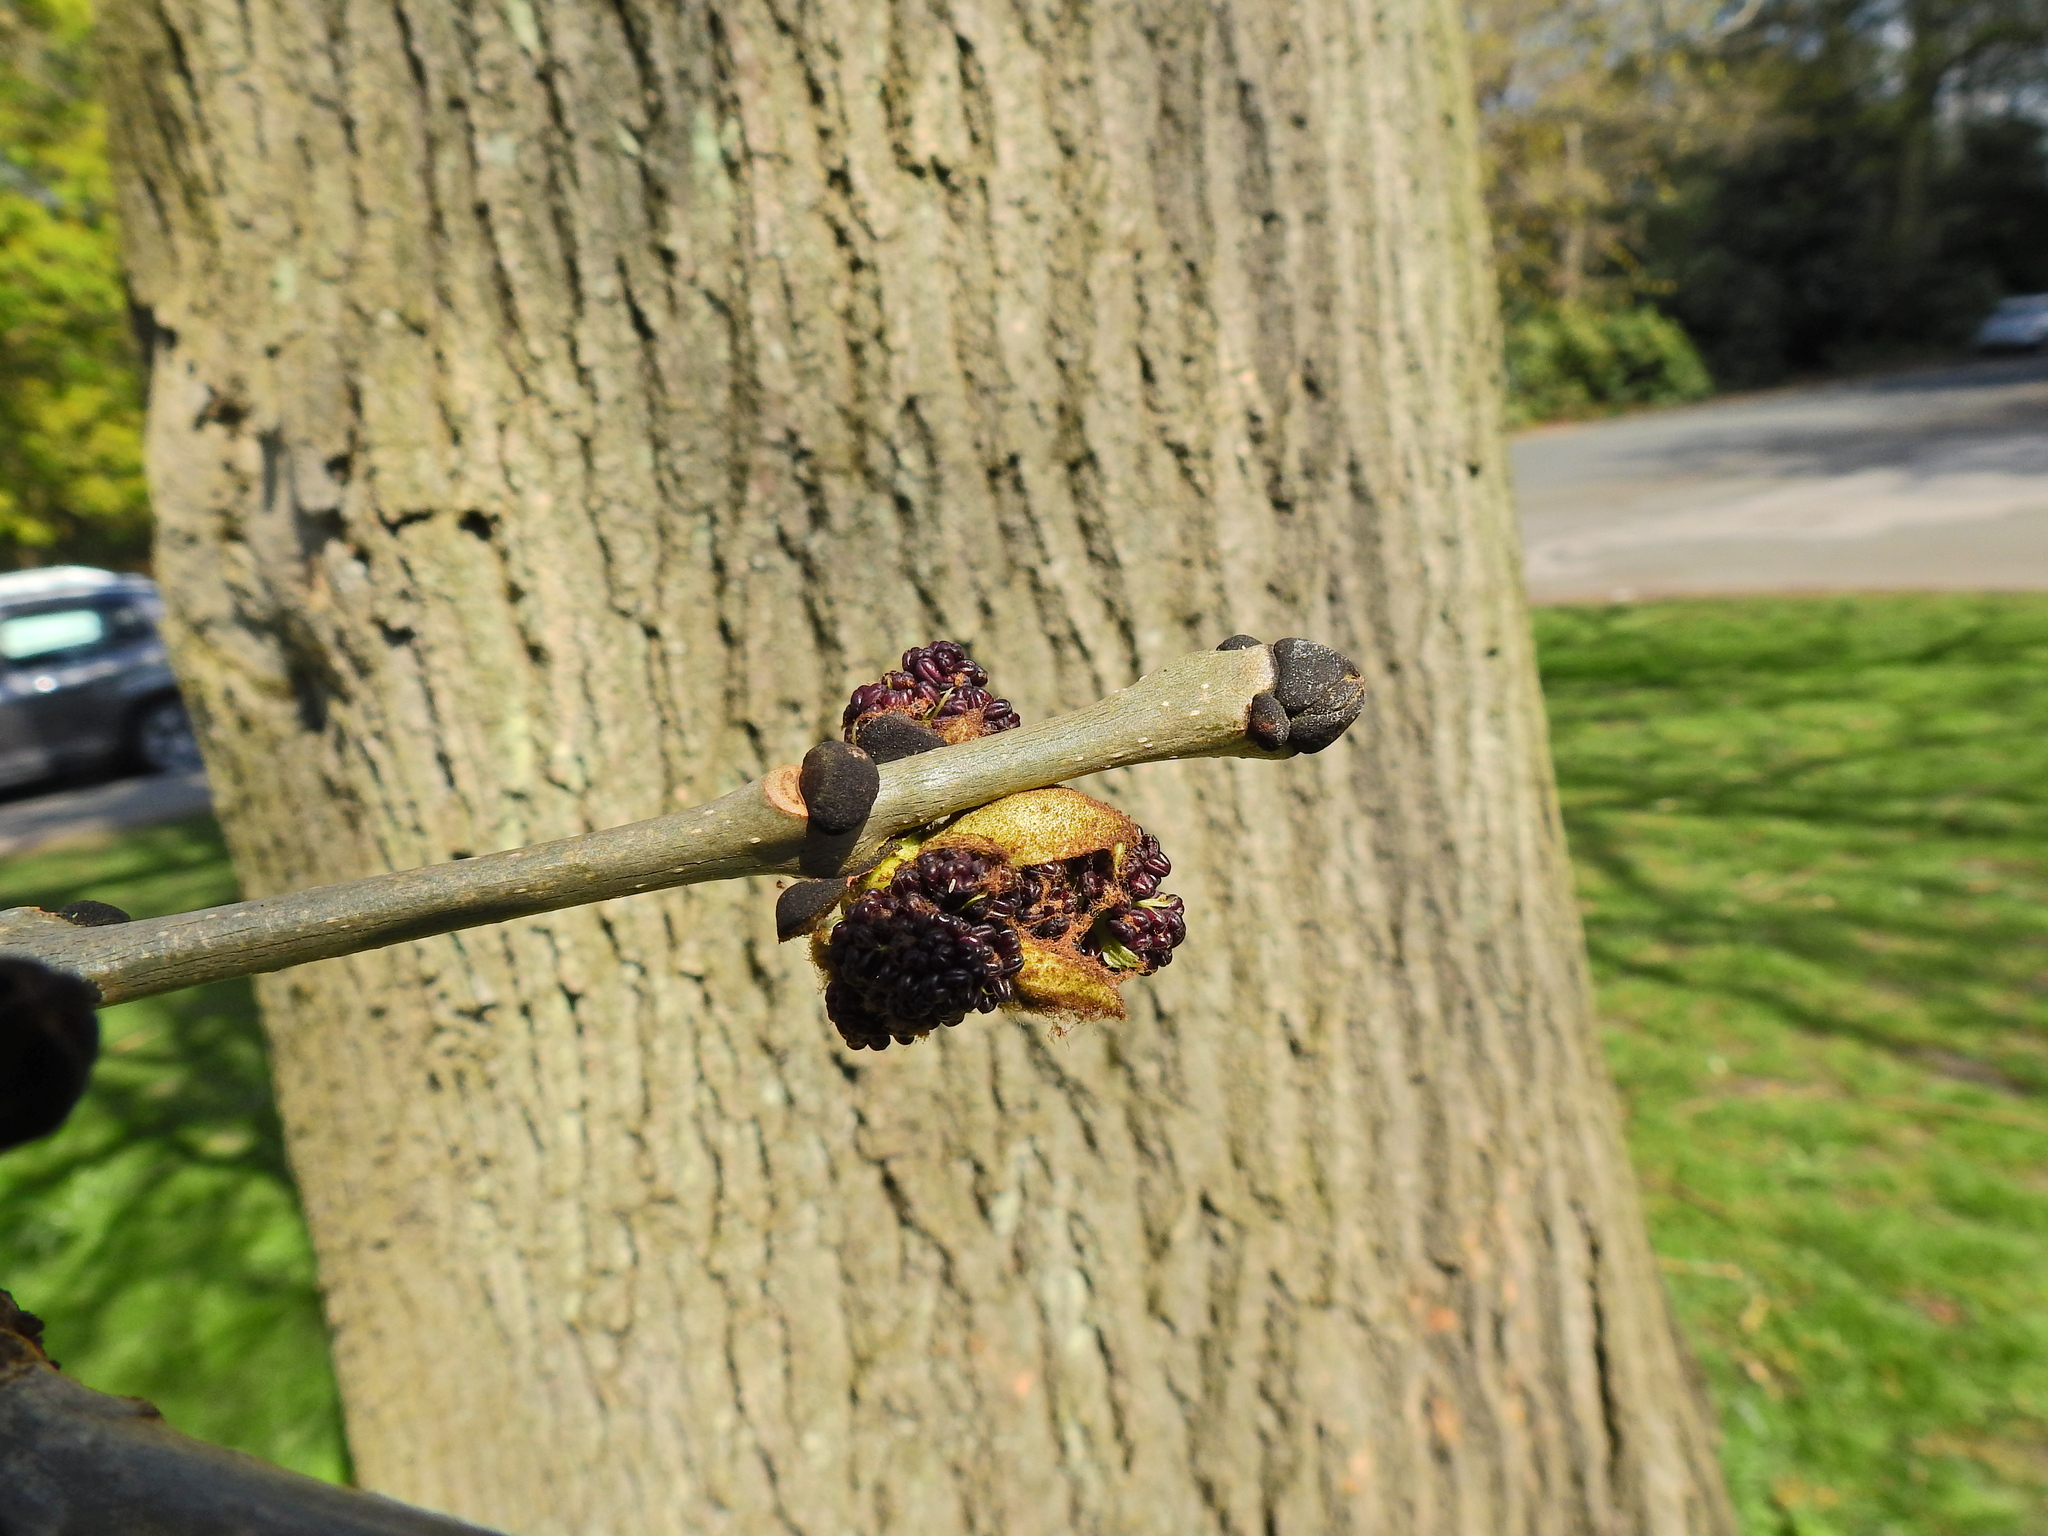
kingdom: Plantae
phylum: Tracheophyta
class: Magnoliopsida
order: Lamiales
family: Oleaceae
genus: Fraxinus
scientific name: Fraxinus excelsior
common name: European ash
